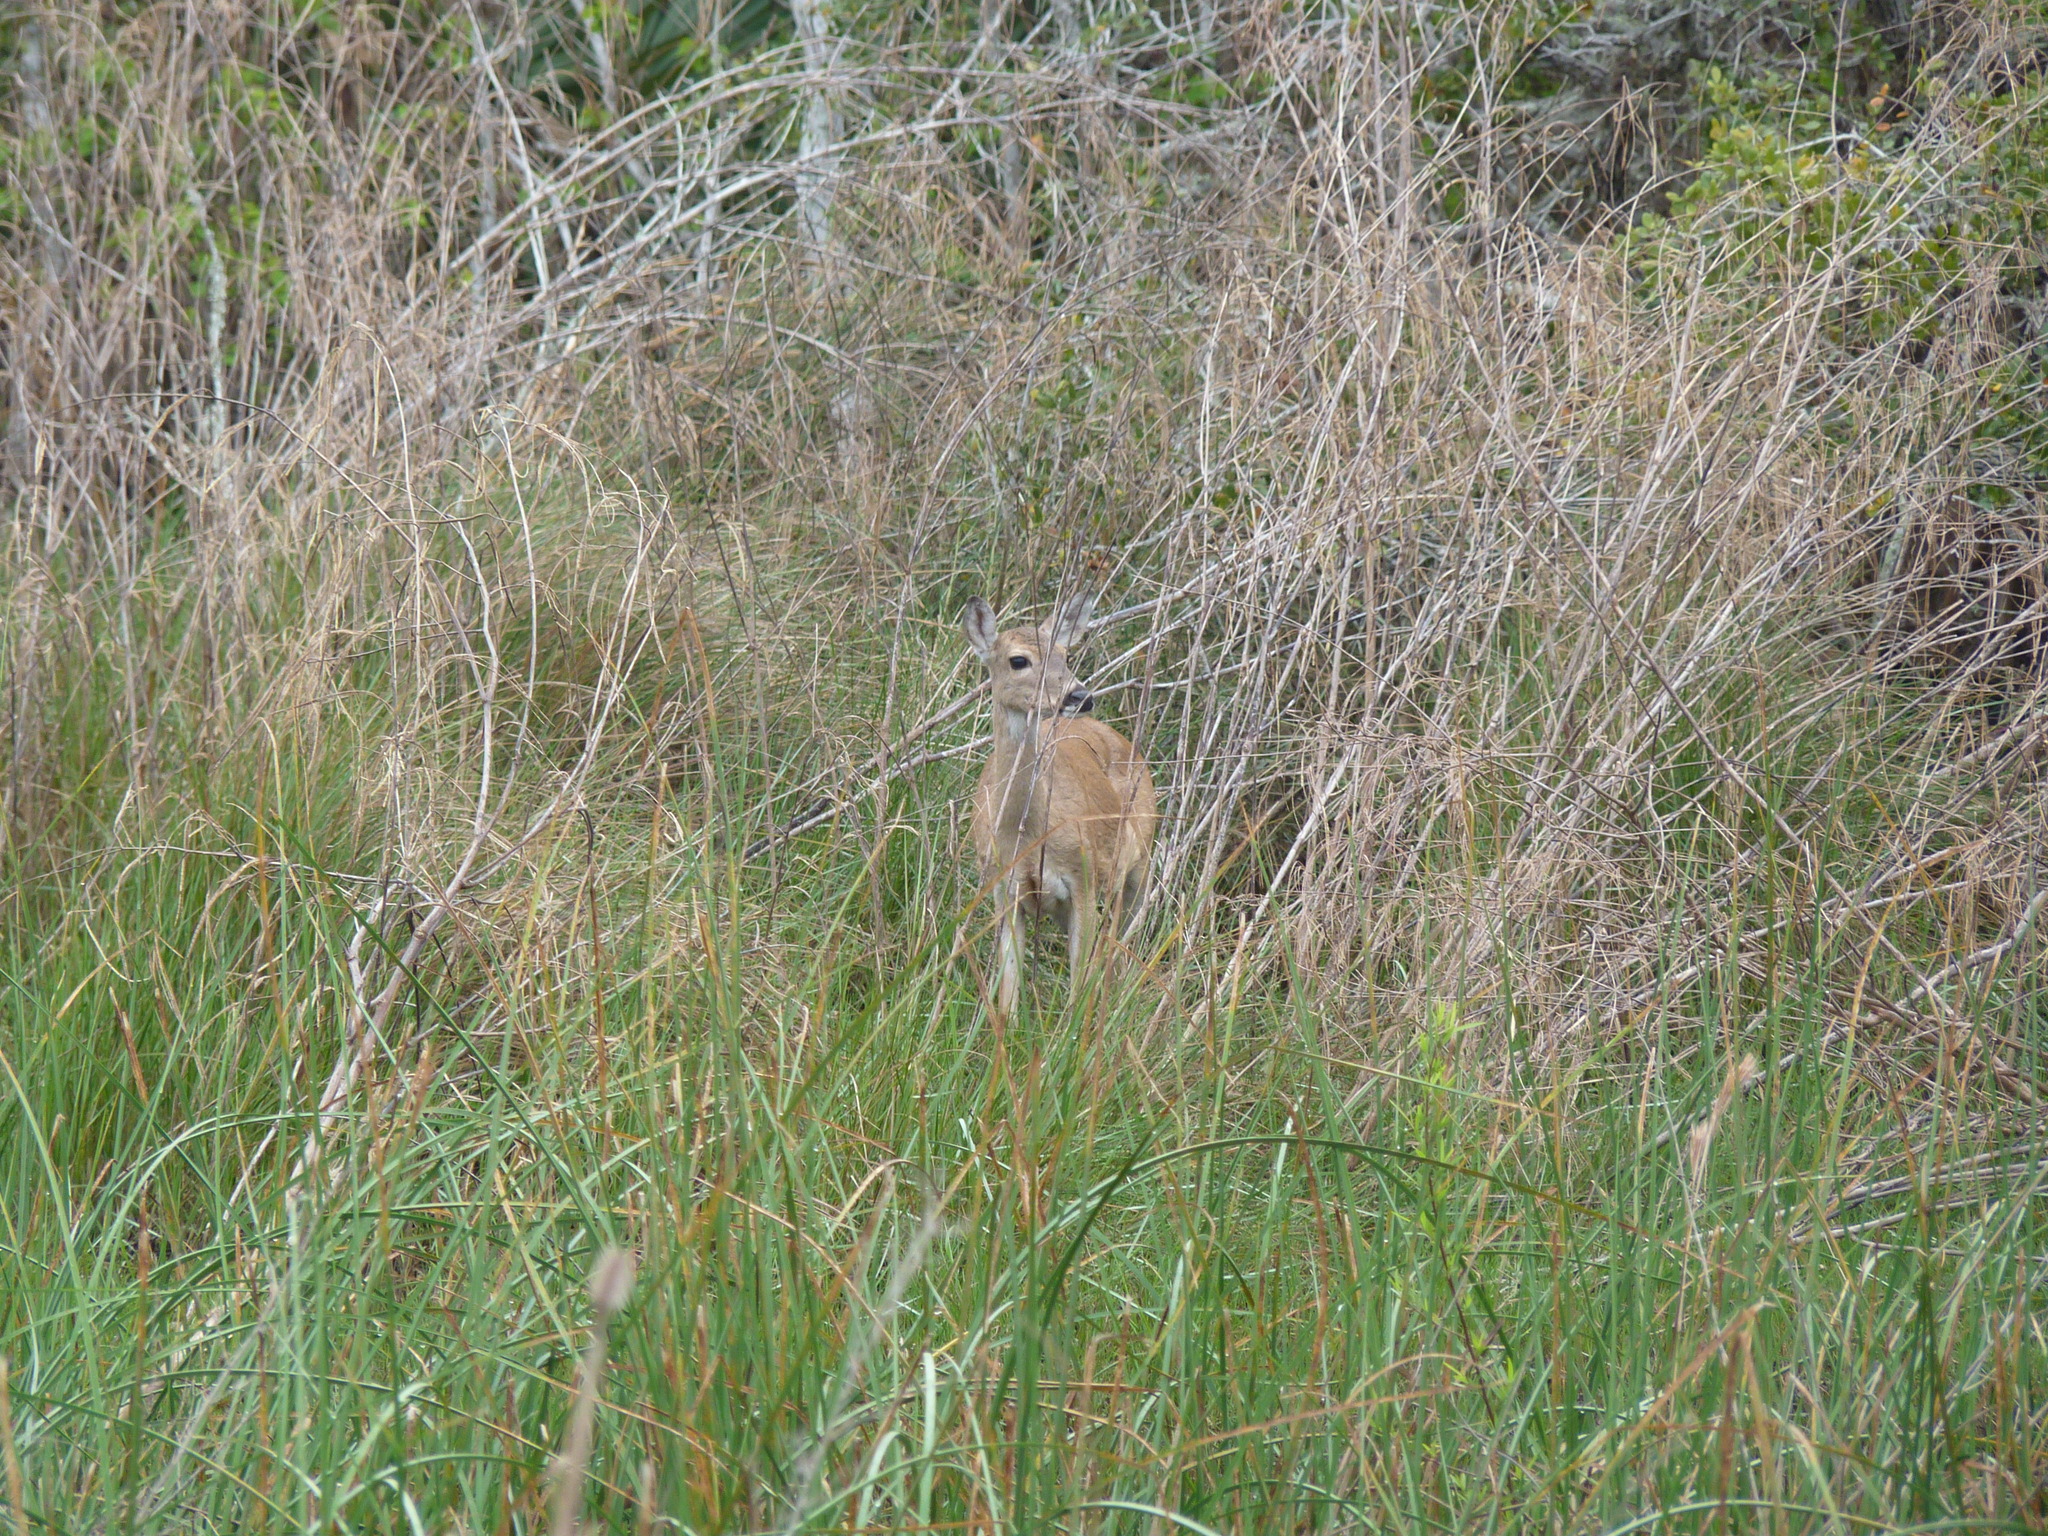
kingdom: Animalia
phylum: Chordata
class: Mammalia
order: Artiodactyla
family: Cervidae
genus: Odocoileus
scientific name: Odocoileus virginianus
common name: White-tailed deer
